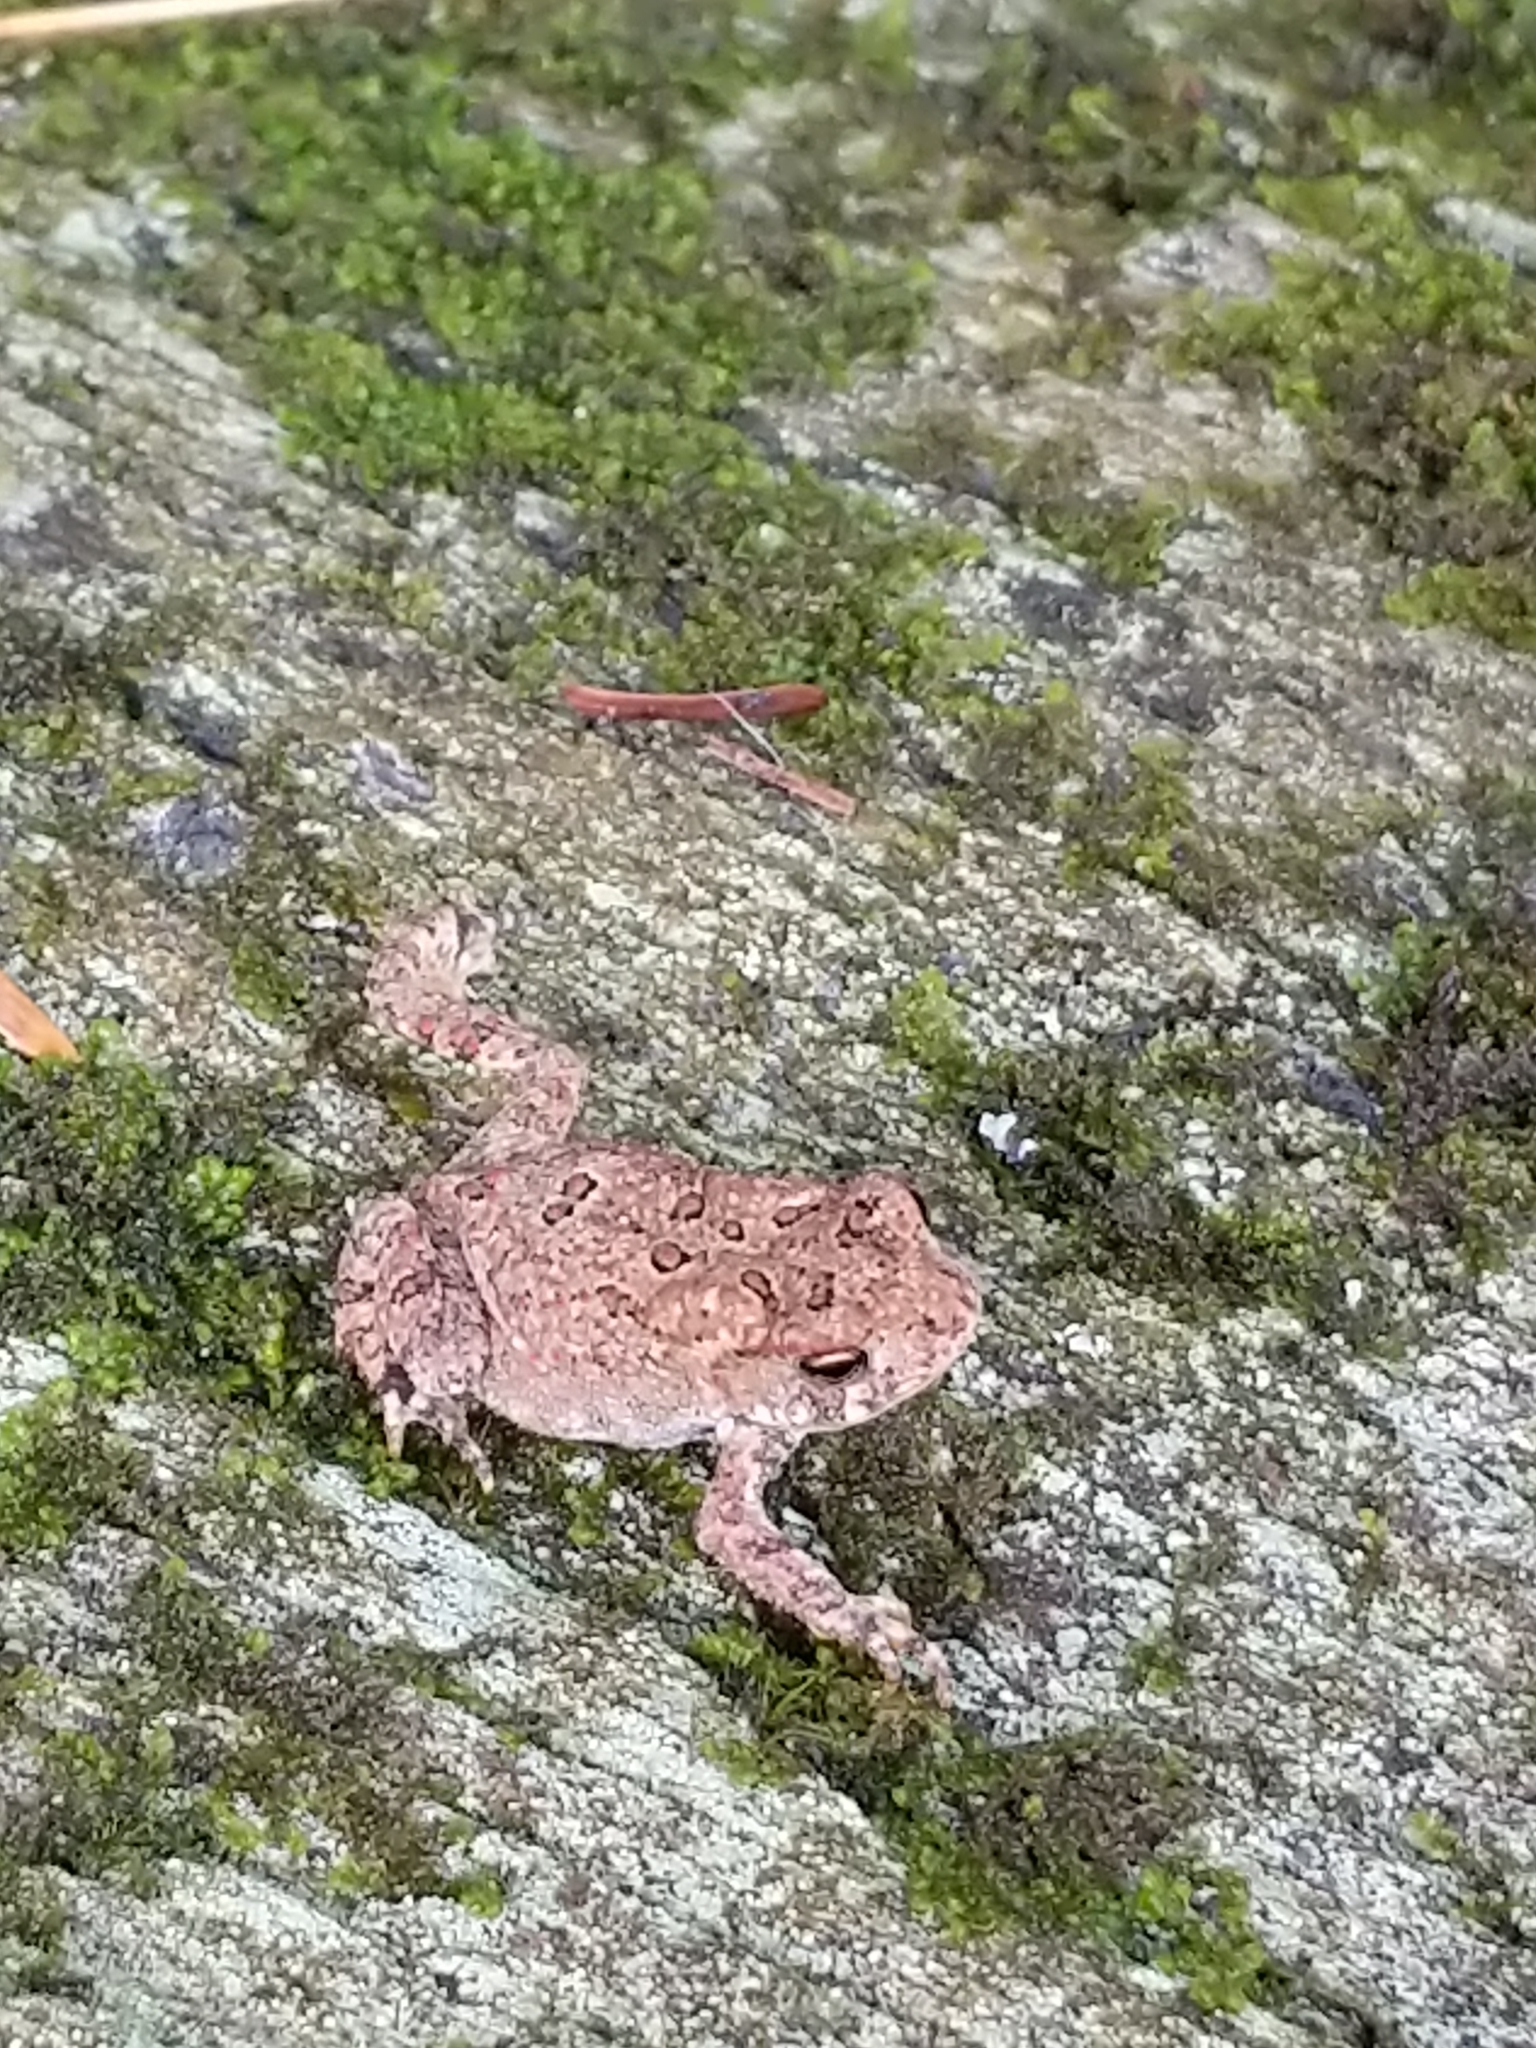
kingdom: Animalia
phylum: Chordata
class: Amphibia
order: Anura
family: Bufonidae
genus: Anaxyrus
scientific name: Anaxyrus americanus
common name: American toad
